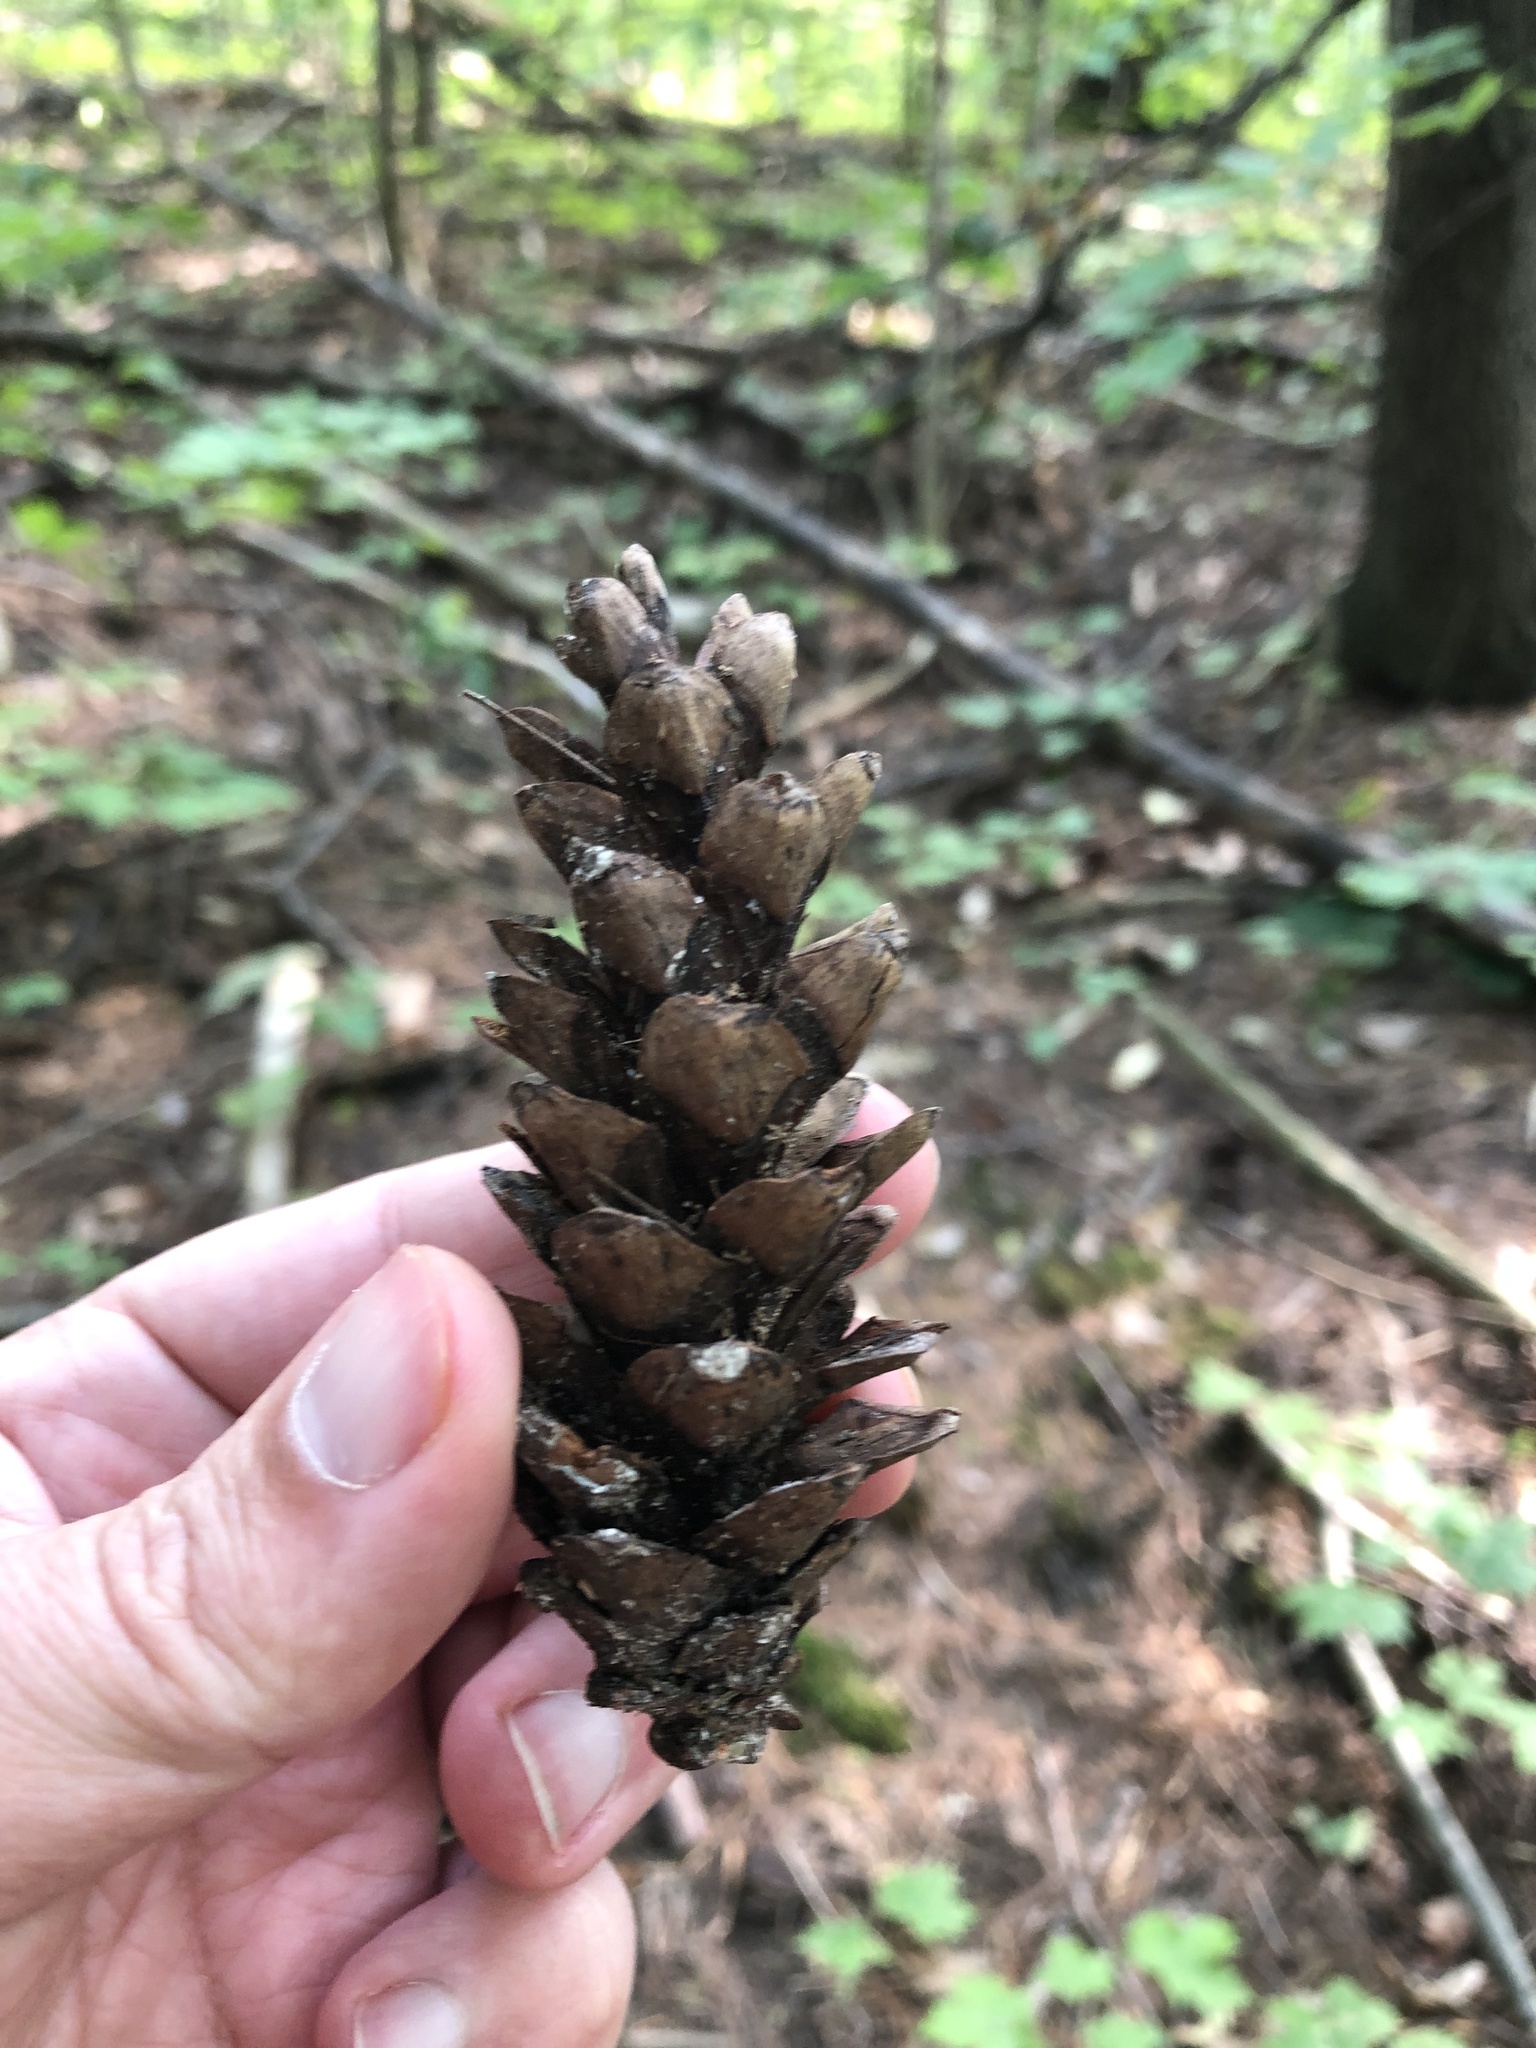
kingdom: Plantae
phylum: Tracheophyta
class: Pinopsida
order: Pinales
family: Pinaceae
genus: Pinus
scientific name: Pinus strobus
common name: Weymouth pine
